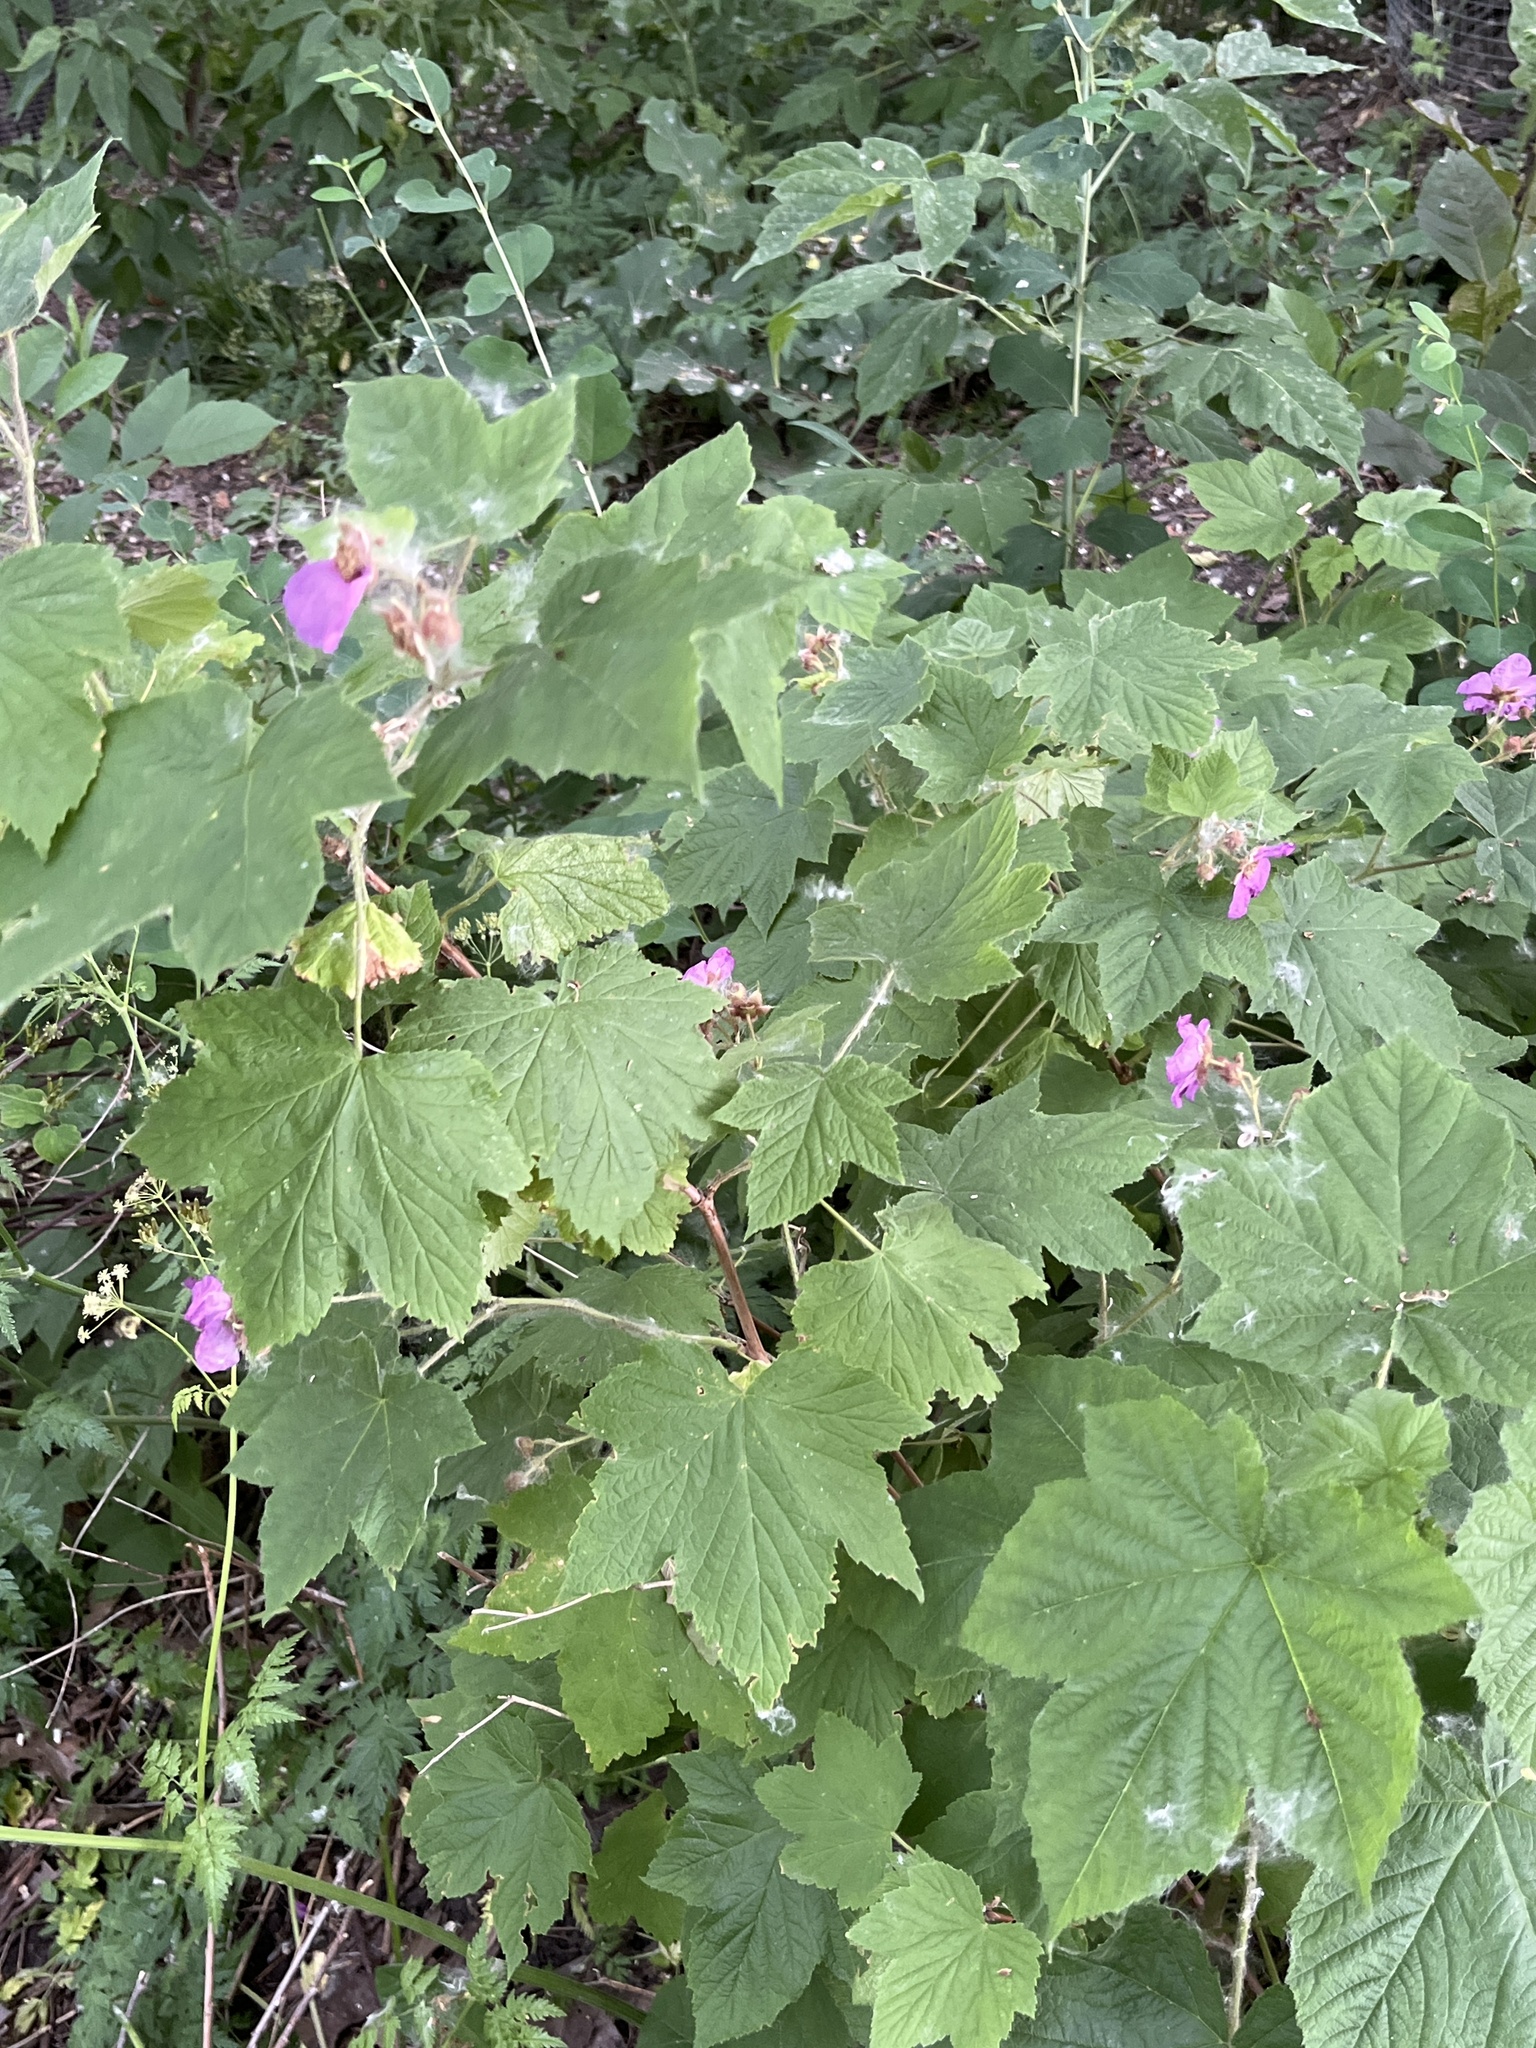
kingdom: Plantae
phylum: Tracheophyta
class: Magnoliopsida
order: Rosales
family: Rosaceae
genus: Rubus
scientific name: Rubus odoratus
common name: Purple-flowered raspberry
